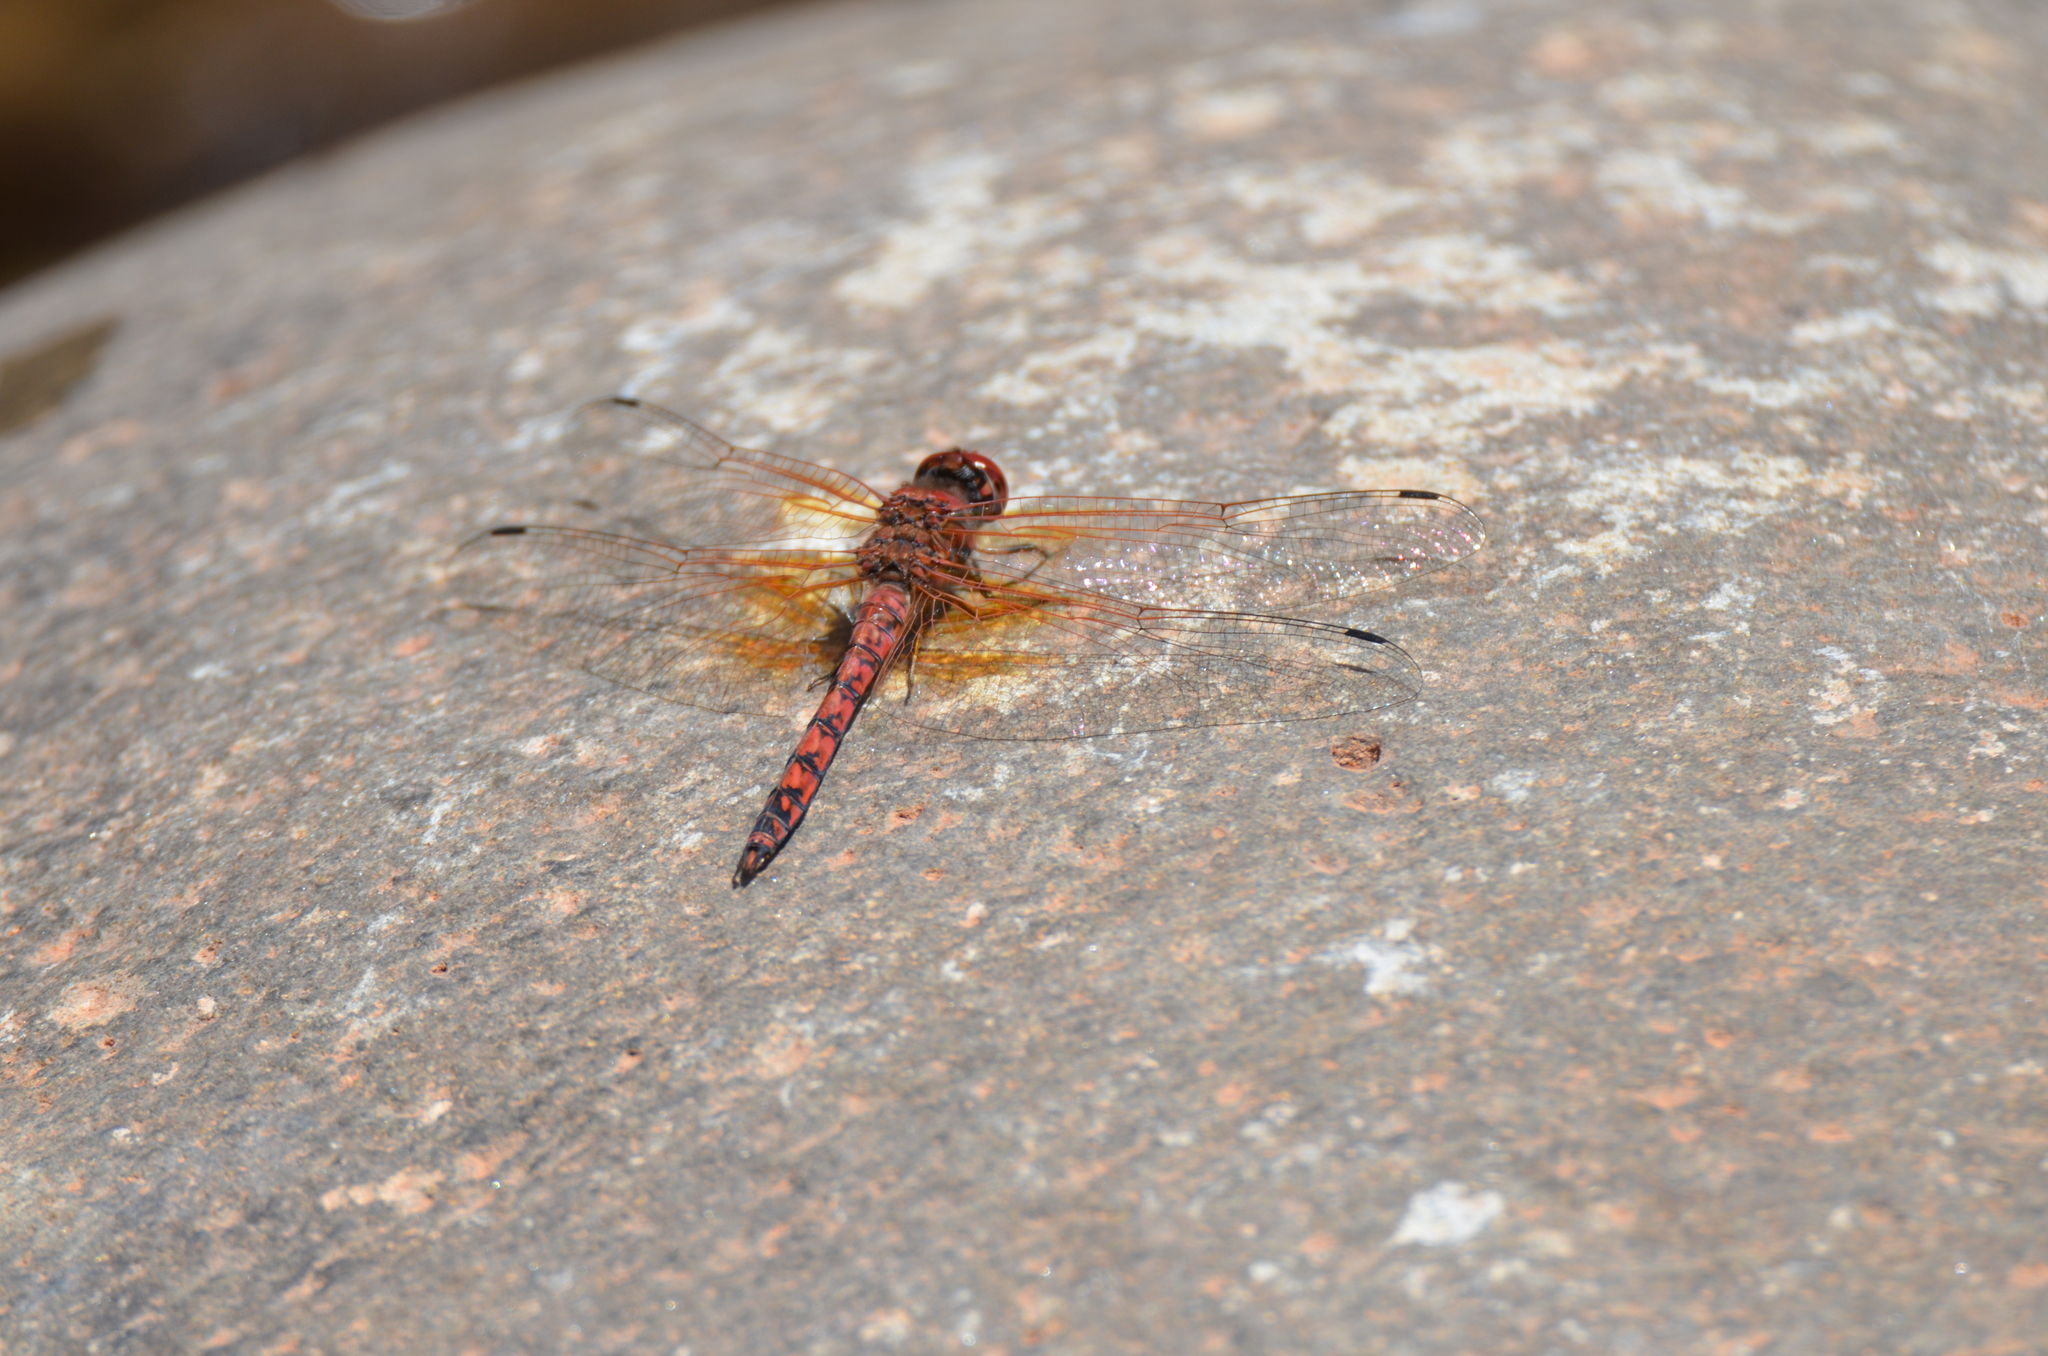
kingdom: Animalia
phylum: Arthropoda
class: Insecta
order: Odonata
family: Libellulidae
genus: Paltothemis
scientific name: Paltothemis lineatipes
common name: Red rock skimmer
